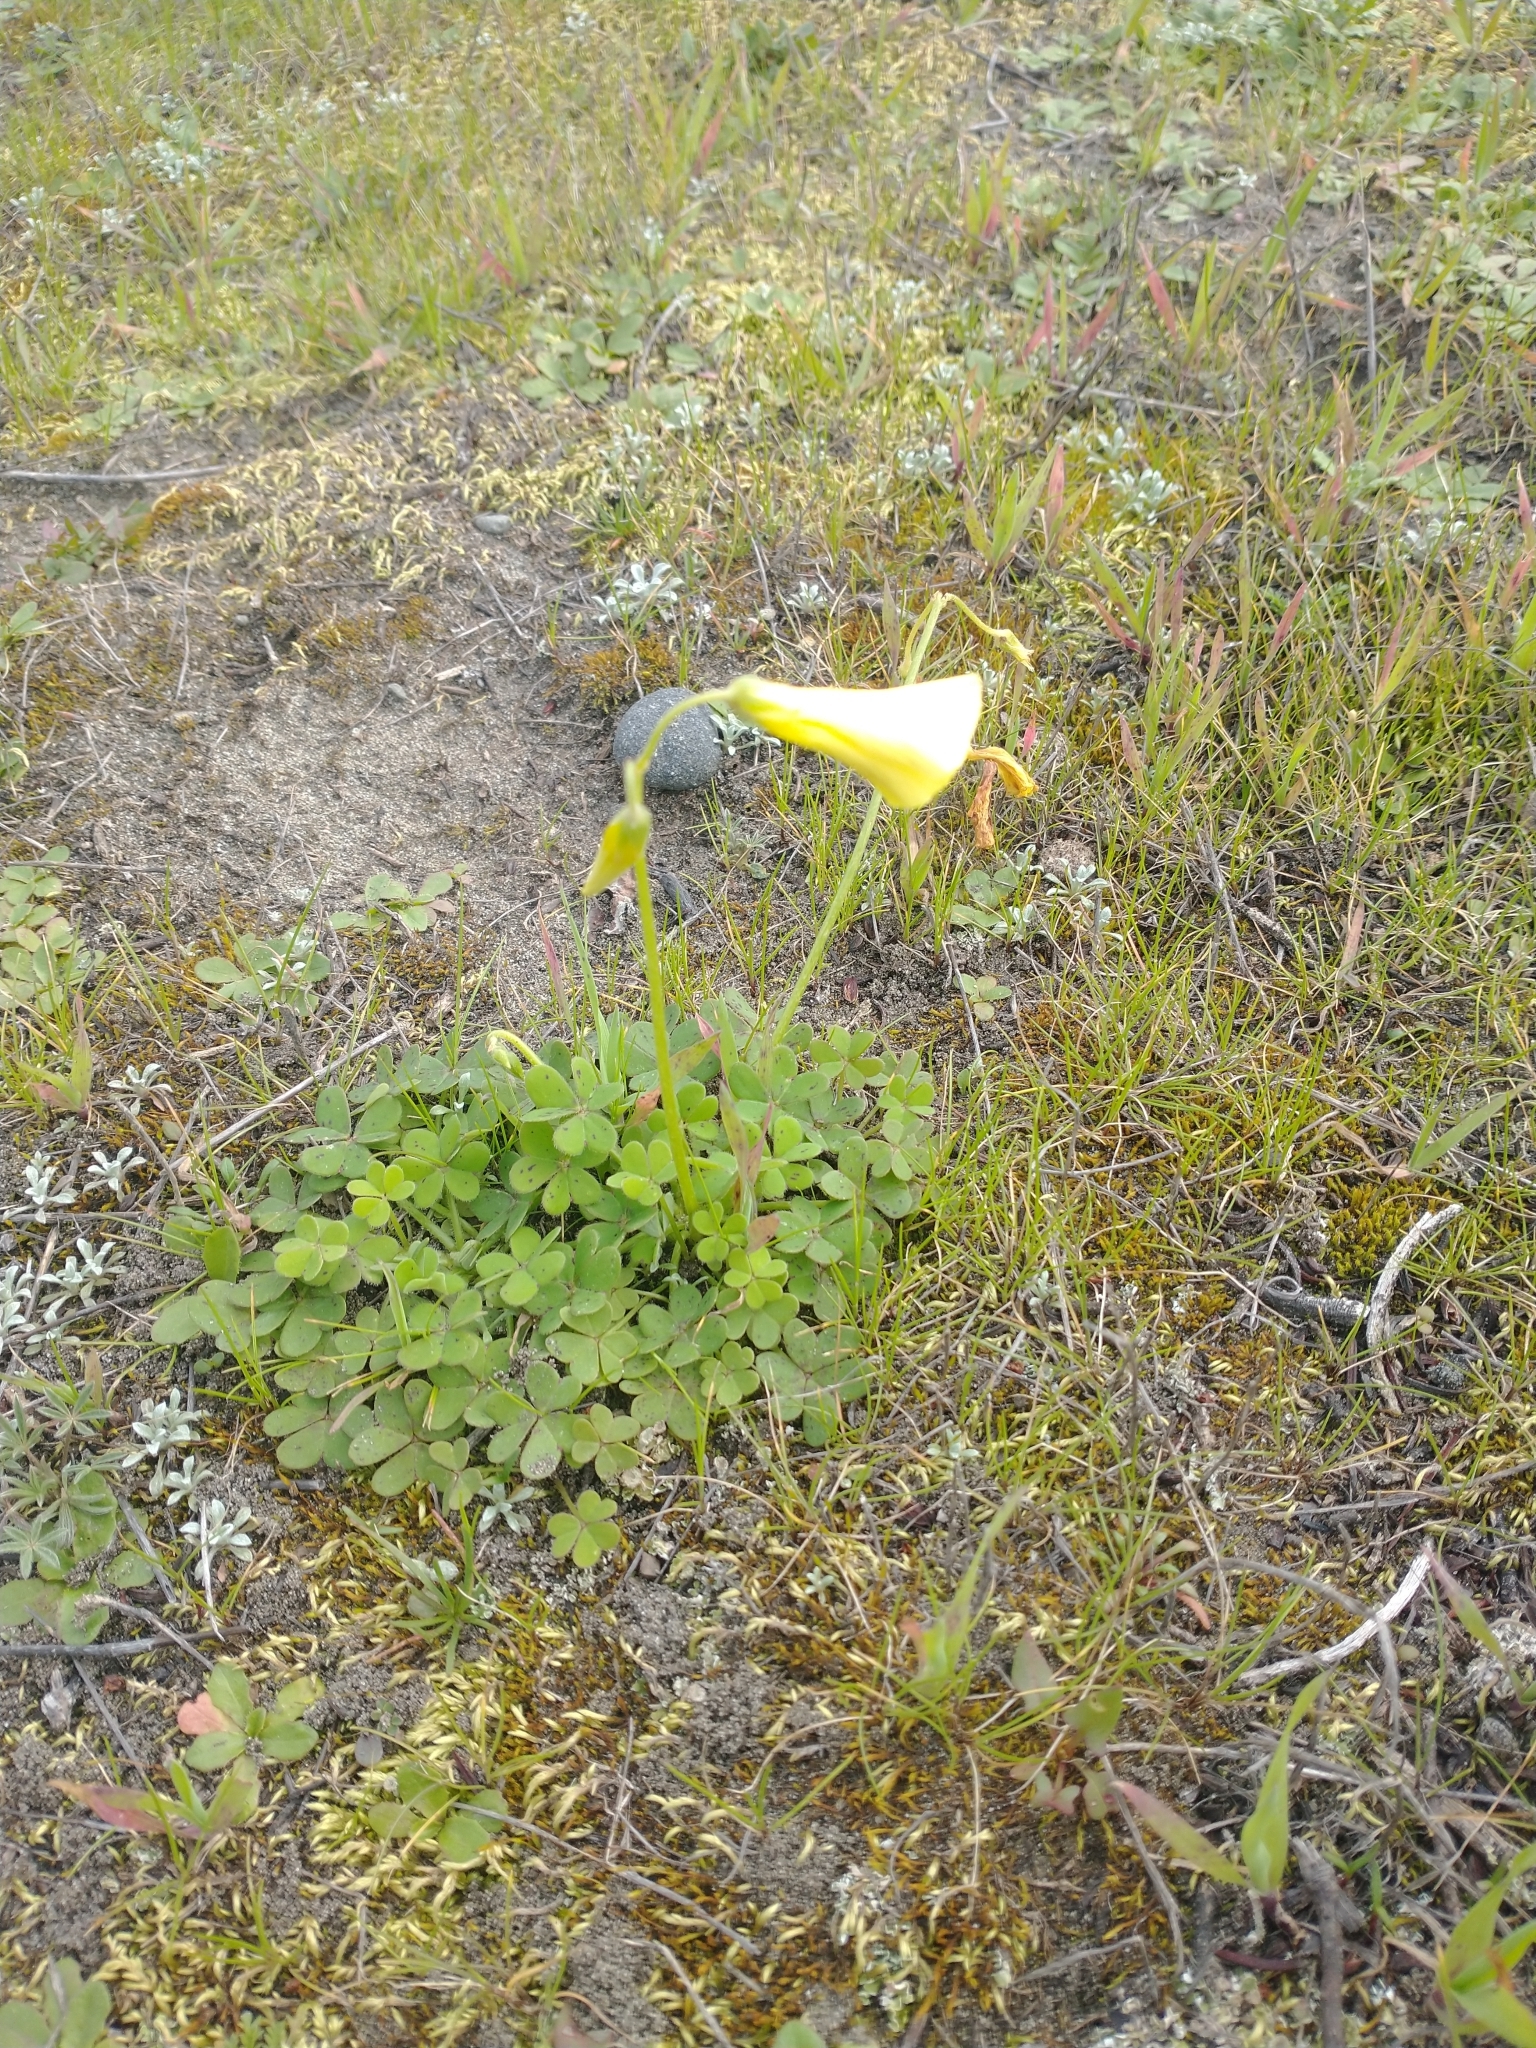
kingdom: Plantae
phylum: Tracheophyta
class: Magnoliopsida
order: Oxalidales
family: Oxalidaceae
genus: Oxalis
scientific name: Oxalis pes-caprae
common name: Bermuda-buttercup
